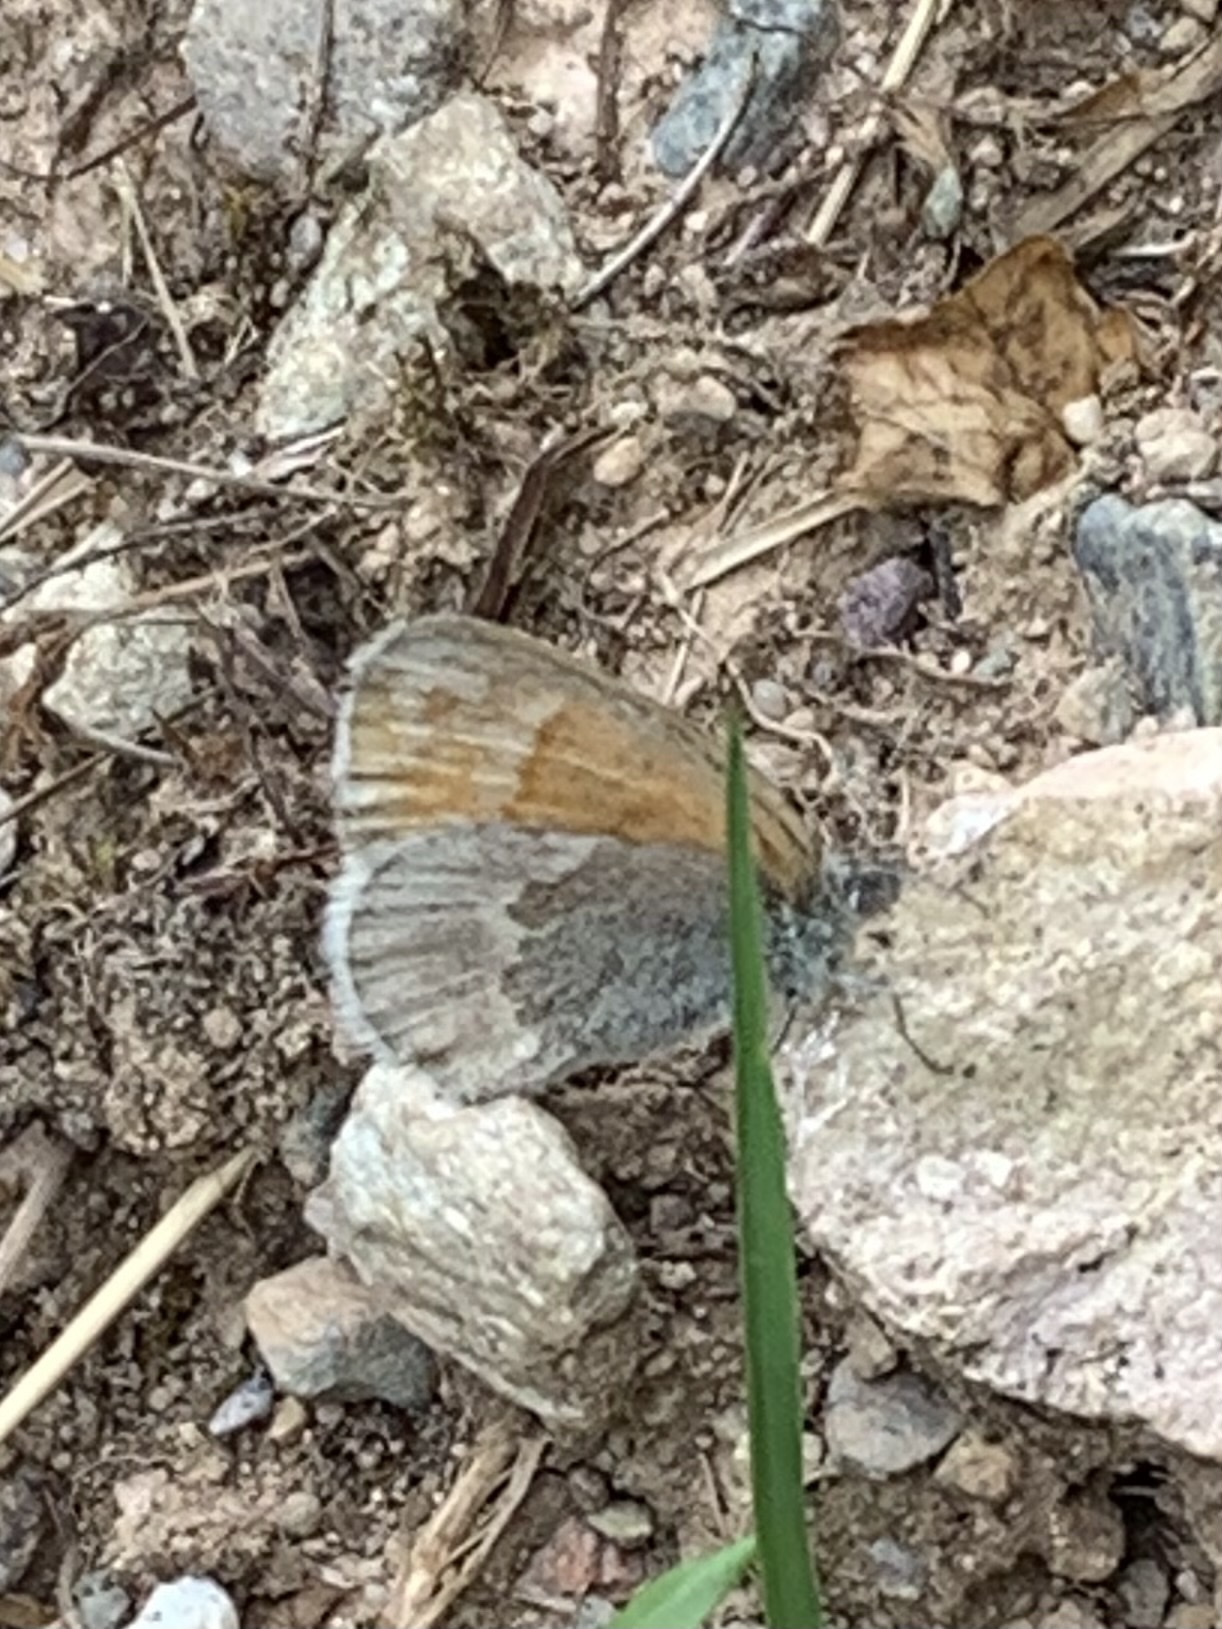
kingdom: Animalia
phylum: Arthropoda
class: Insecta
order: Lepidoptera
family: Nymphalidae
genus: Coenonympha
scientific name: Coenonympha california
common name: Common ringlet
